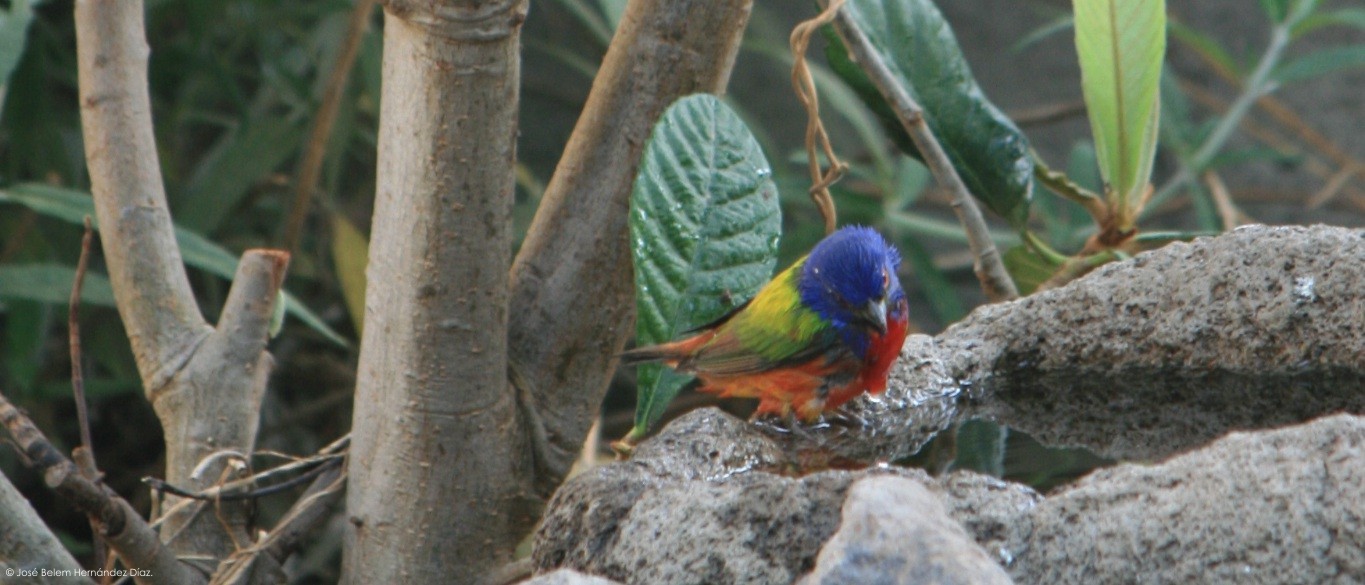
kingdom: Animalia
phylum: Chordata
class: Aves
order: Passeriformes
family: Cardinalidae
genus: Passerina
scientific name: Passerina ciris
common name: Painted bunting
